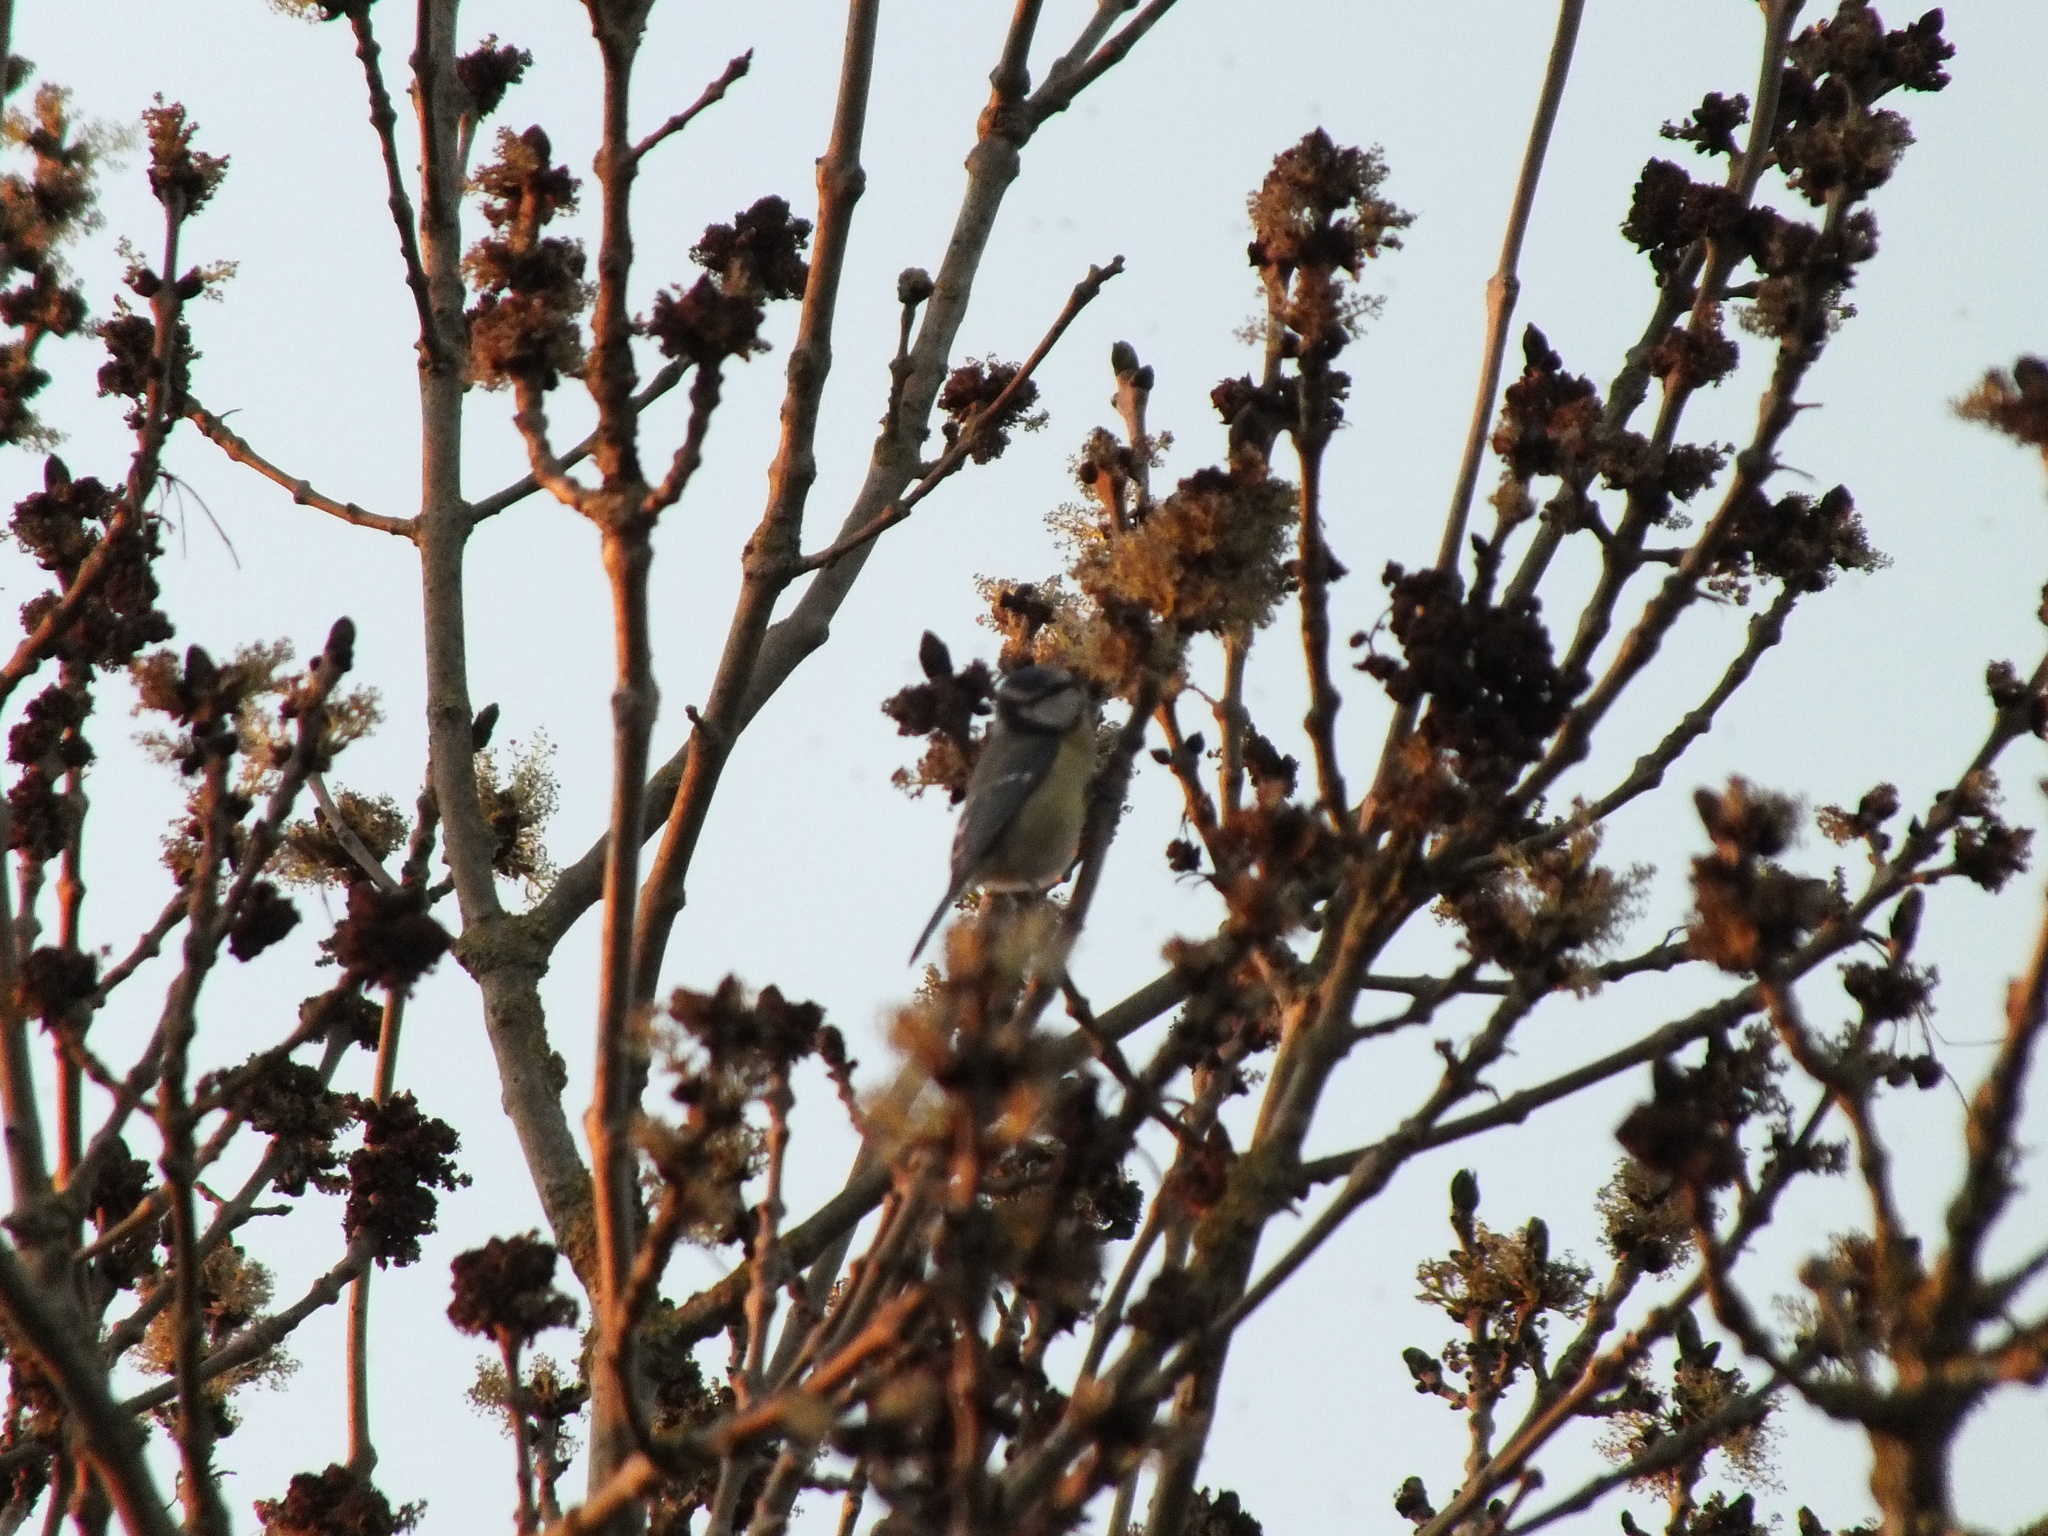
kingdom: Animalia
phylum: Chordata
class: Aves
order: Passeriformes
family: Paridae
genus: Cyanistes
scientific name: Cyanistes caeruleus
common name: Eurasian blue tit
